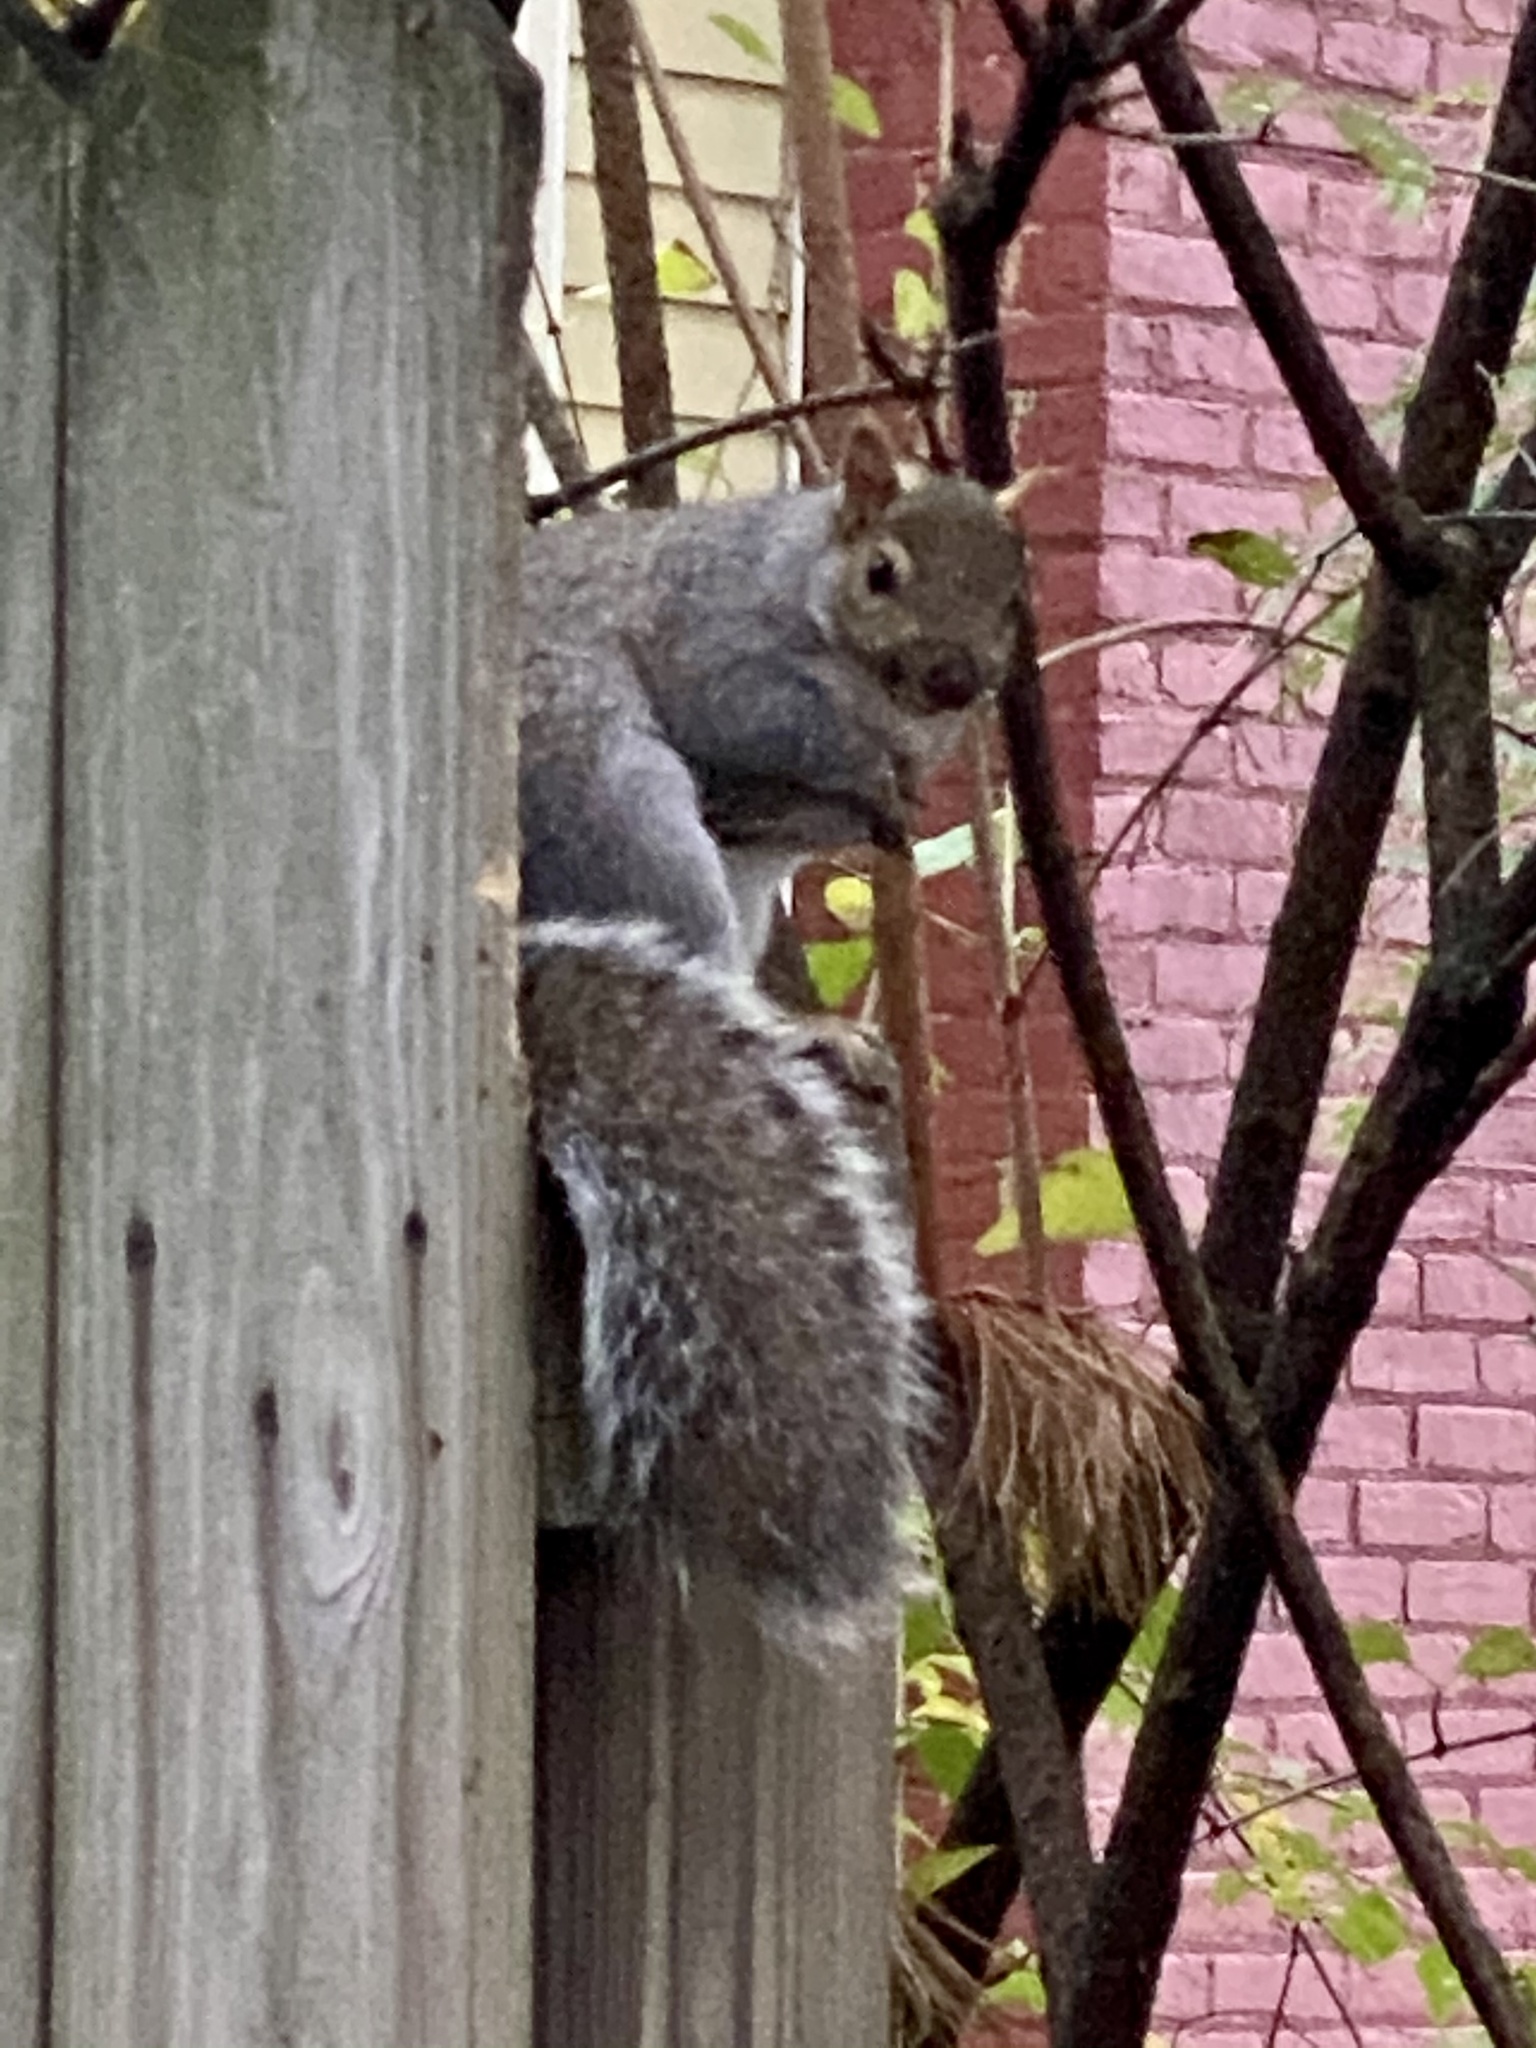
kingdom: Animalia
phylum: Chordata
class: Mammalia
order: Rodentia
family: Sciuridae
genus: Sciurus
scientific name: Sciurus carolinensis
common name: Eastern gray squirrel
